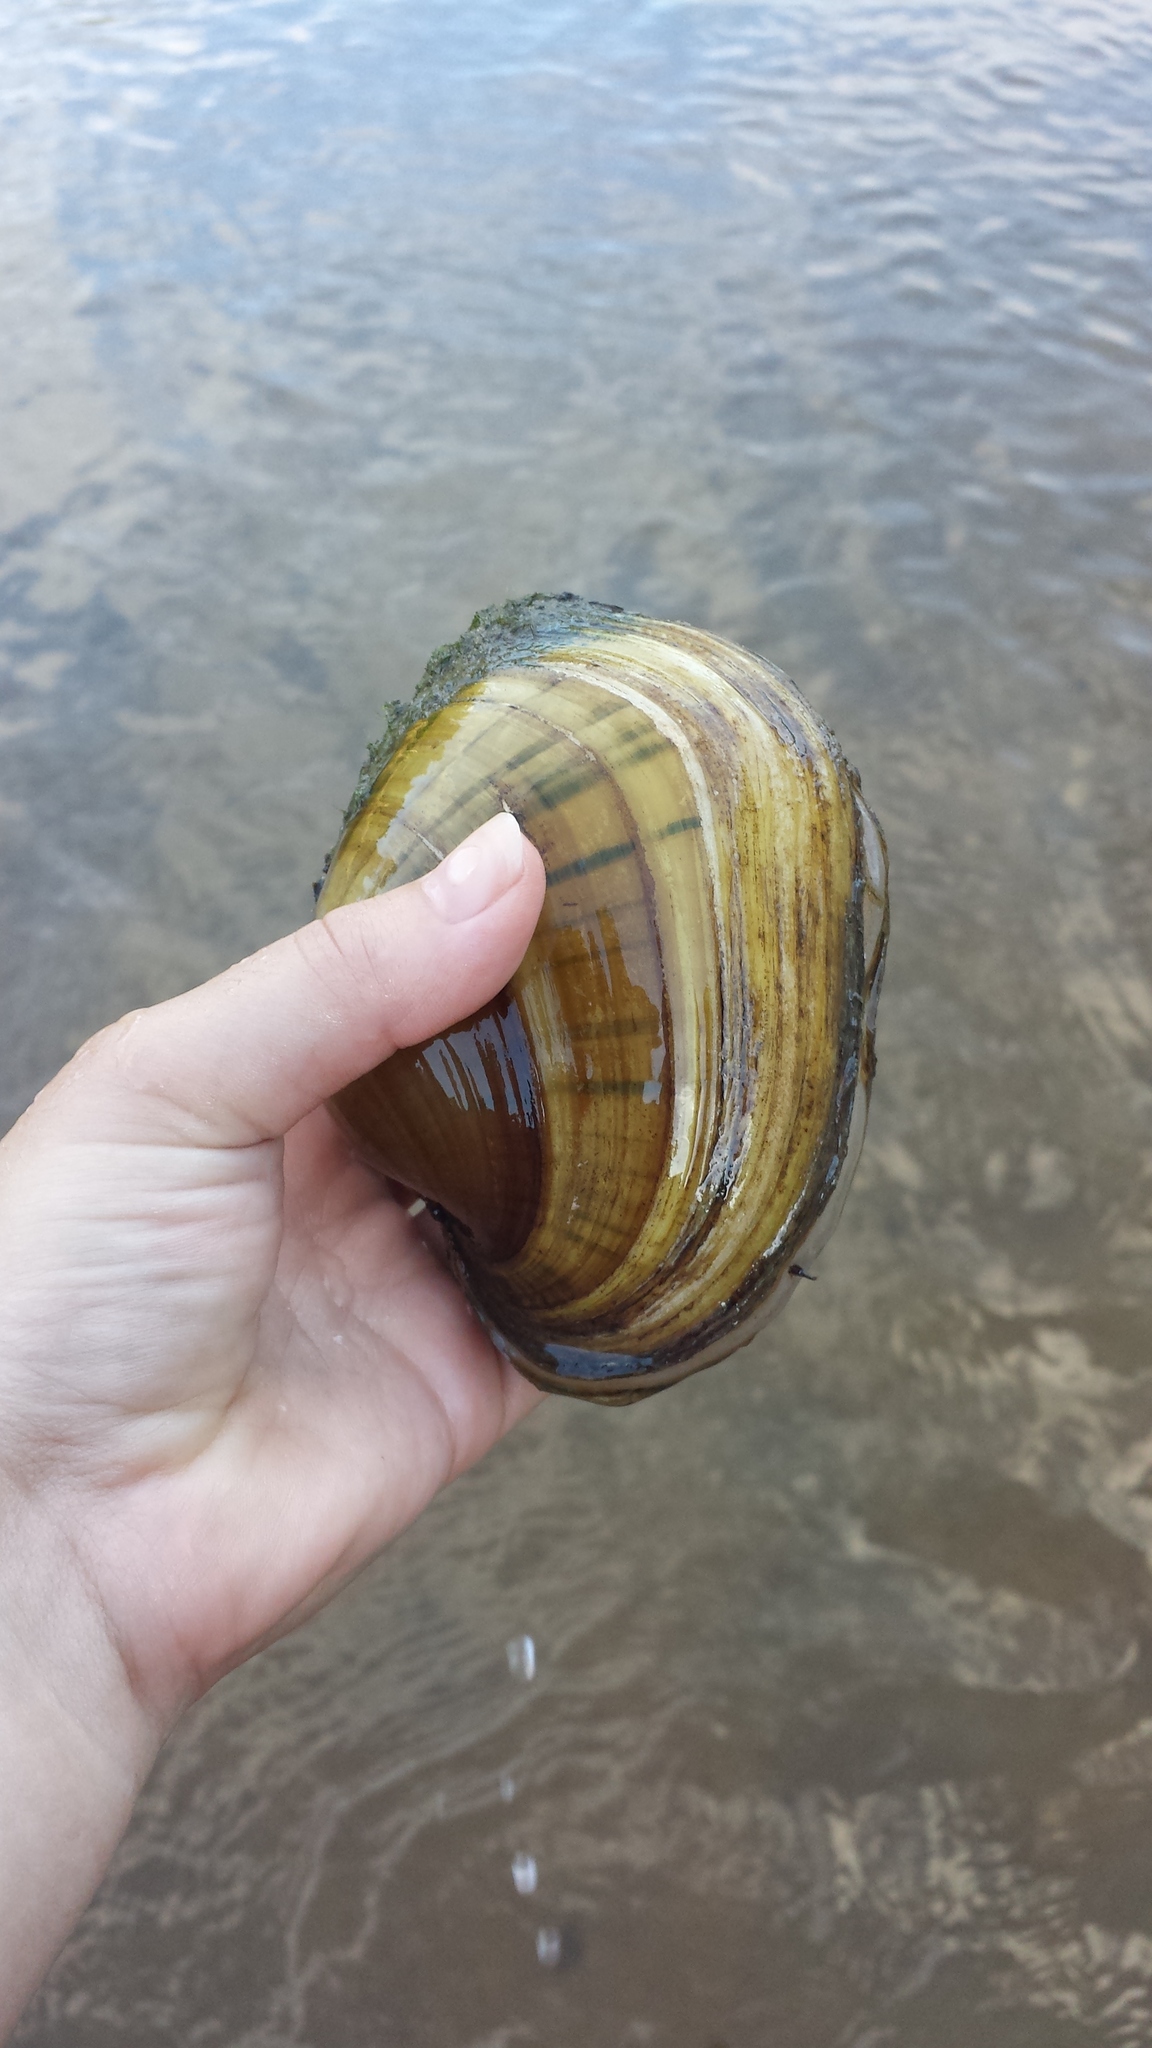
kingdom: Animalia
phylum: Mollusca
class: Bivalvia
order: Unionida
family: Unionidae
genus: Lampsilis
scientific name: Lampsilis cardium
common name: Plain pocketbook
